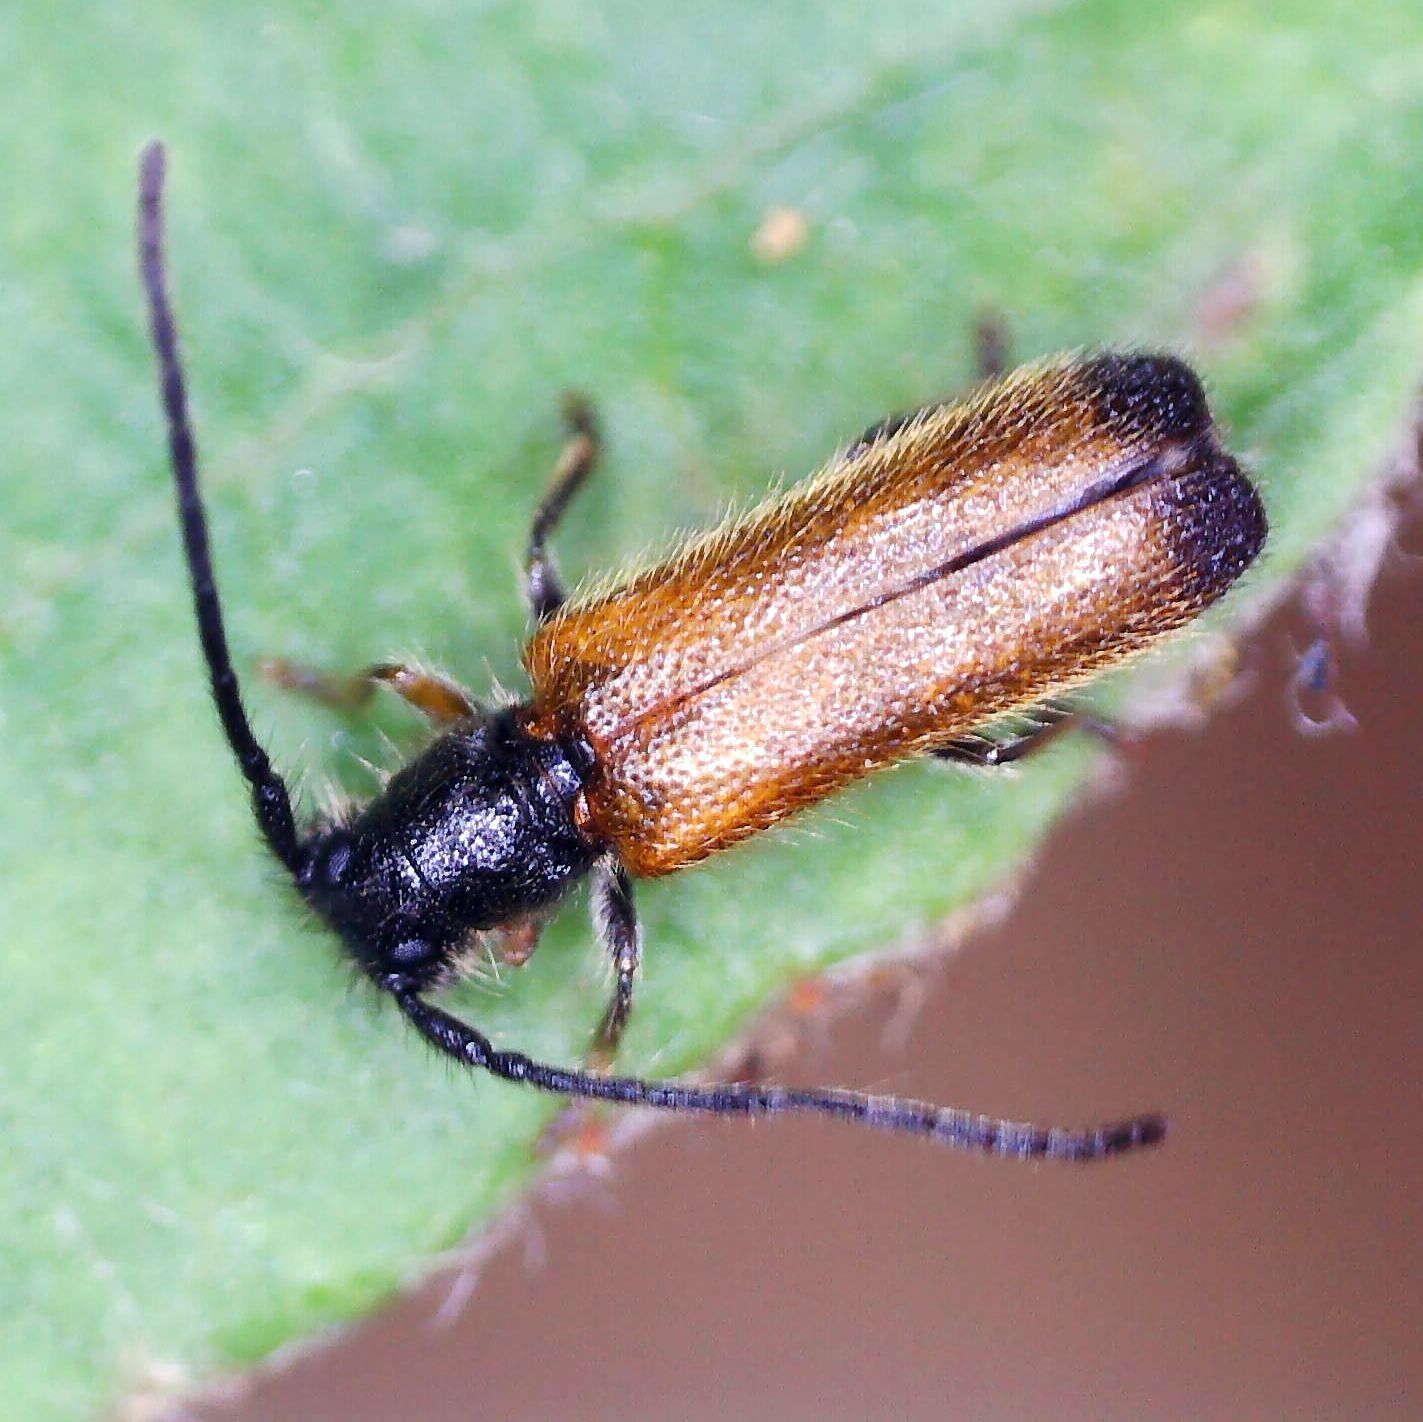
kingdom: Animalia
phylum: Arthropoda
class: Insecta
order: Coleoptera
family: Cerambycidae
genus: Tetrops
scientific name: Tetrops praeustus
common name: Plum beetle
